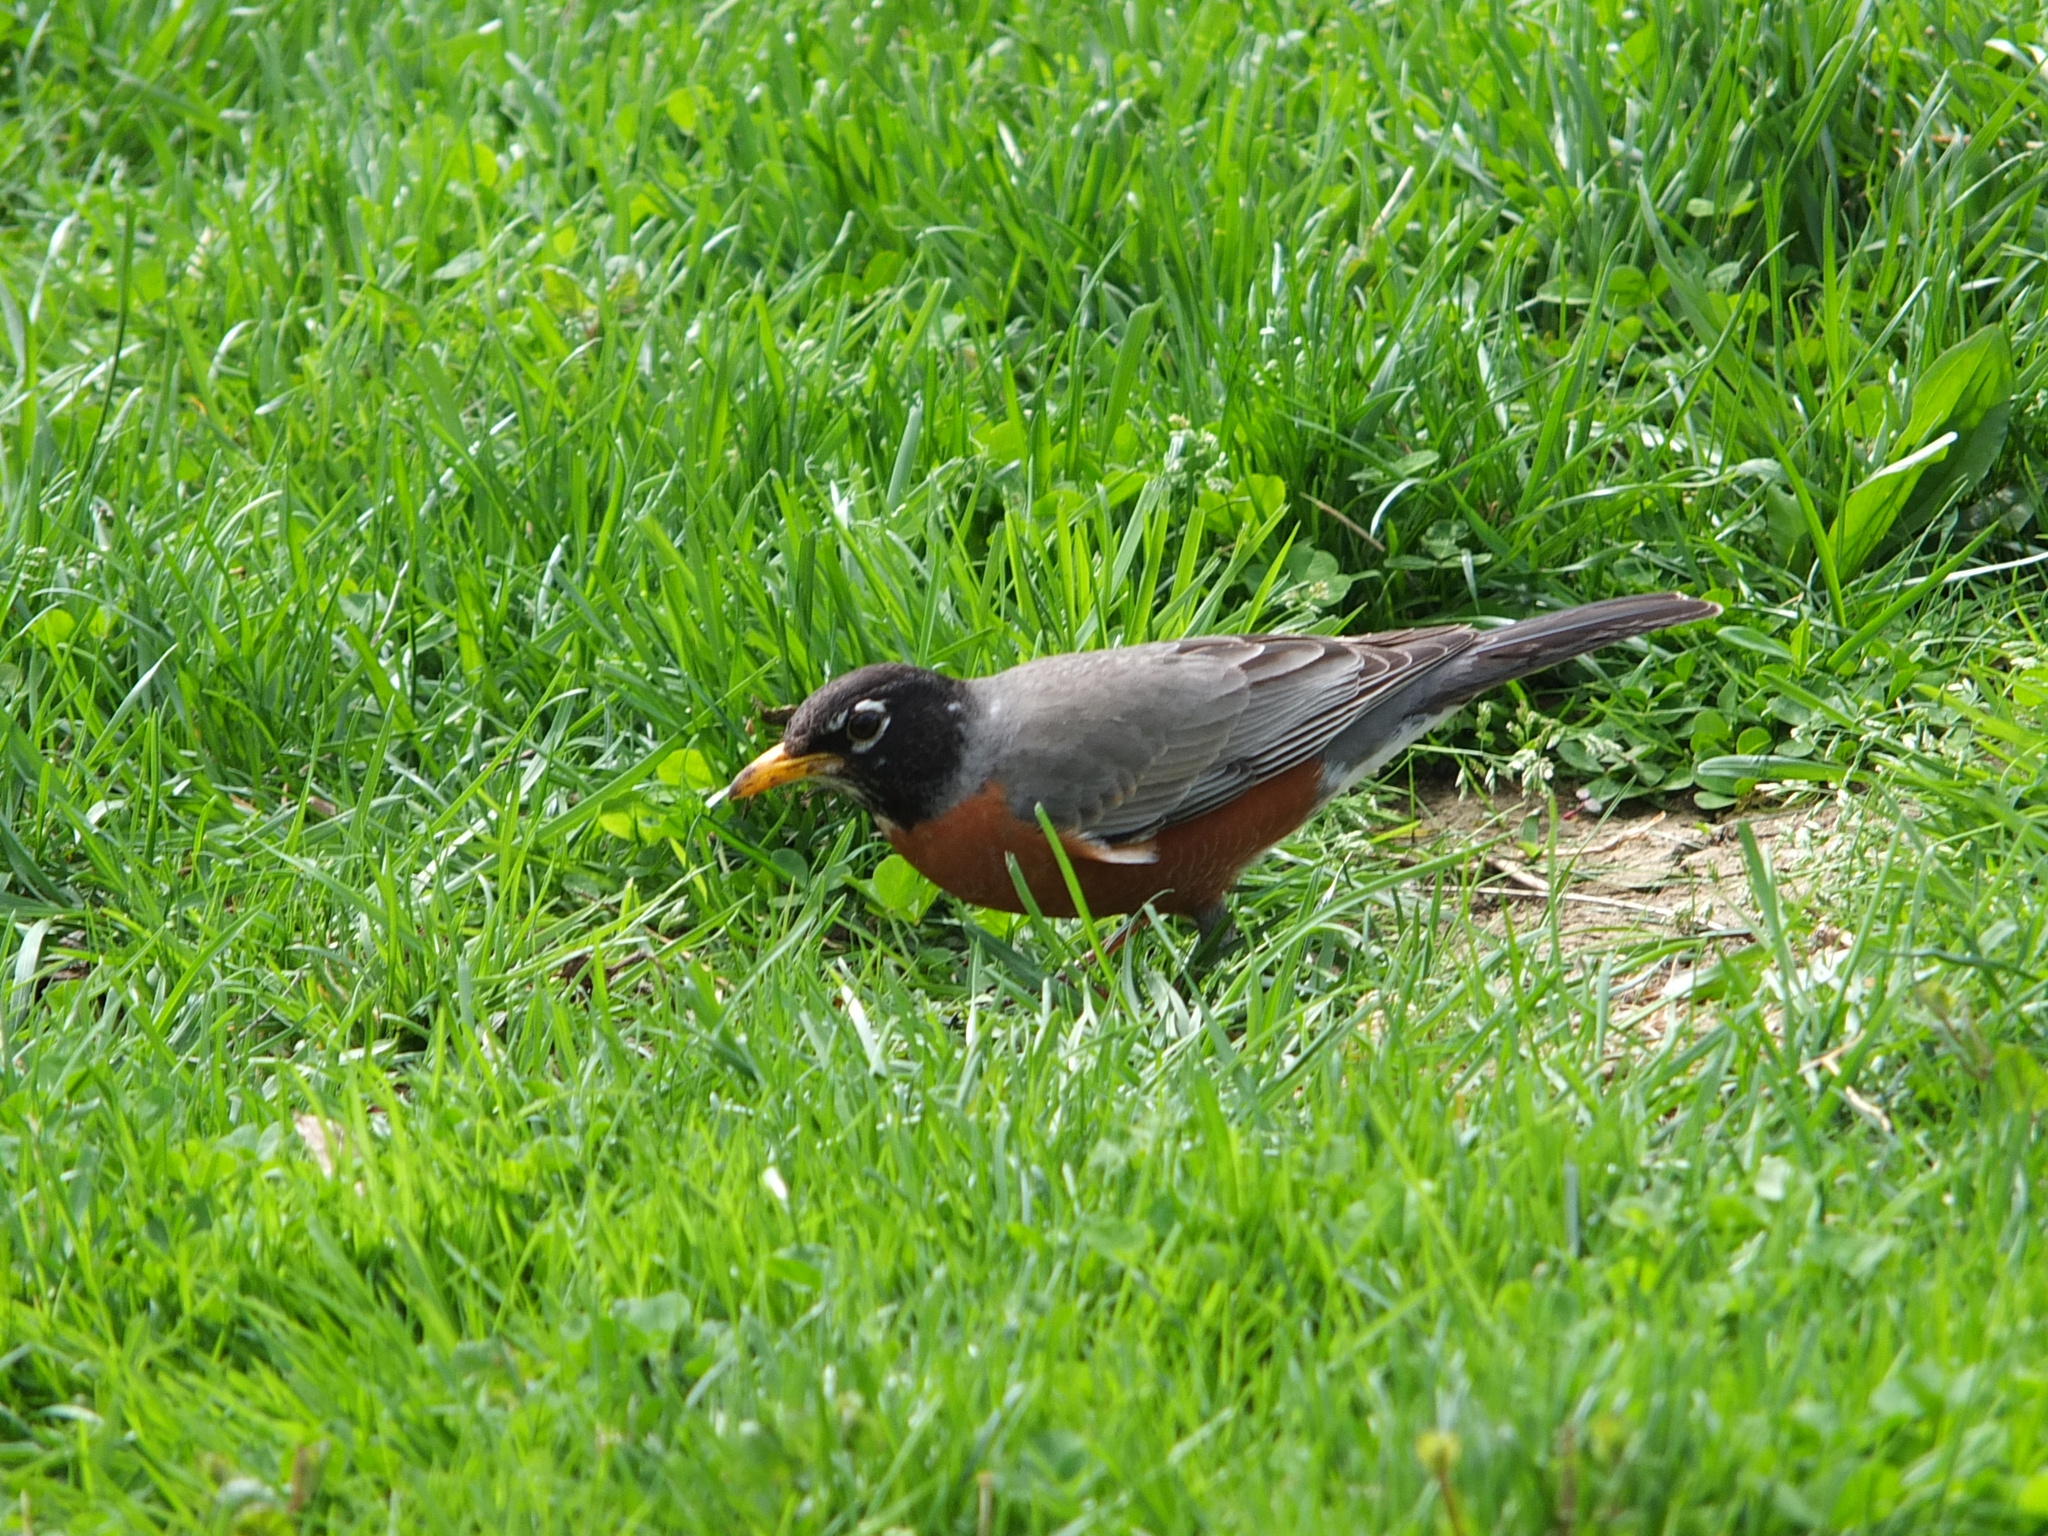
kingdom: Animalia
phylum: Chordata
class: Aves
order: Passeriformes
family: Turdidae
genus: Turdus
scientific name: Turdus migratorius
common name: American robin
